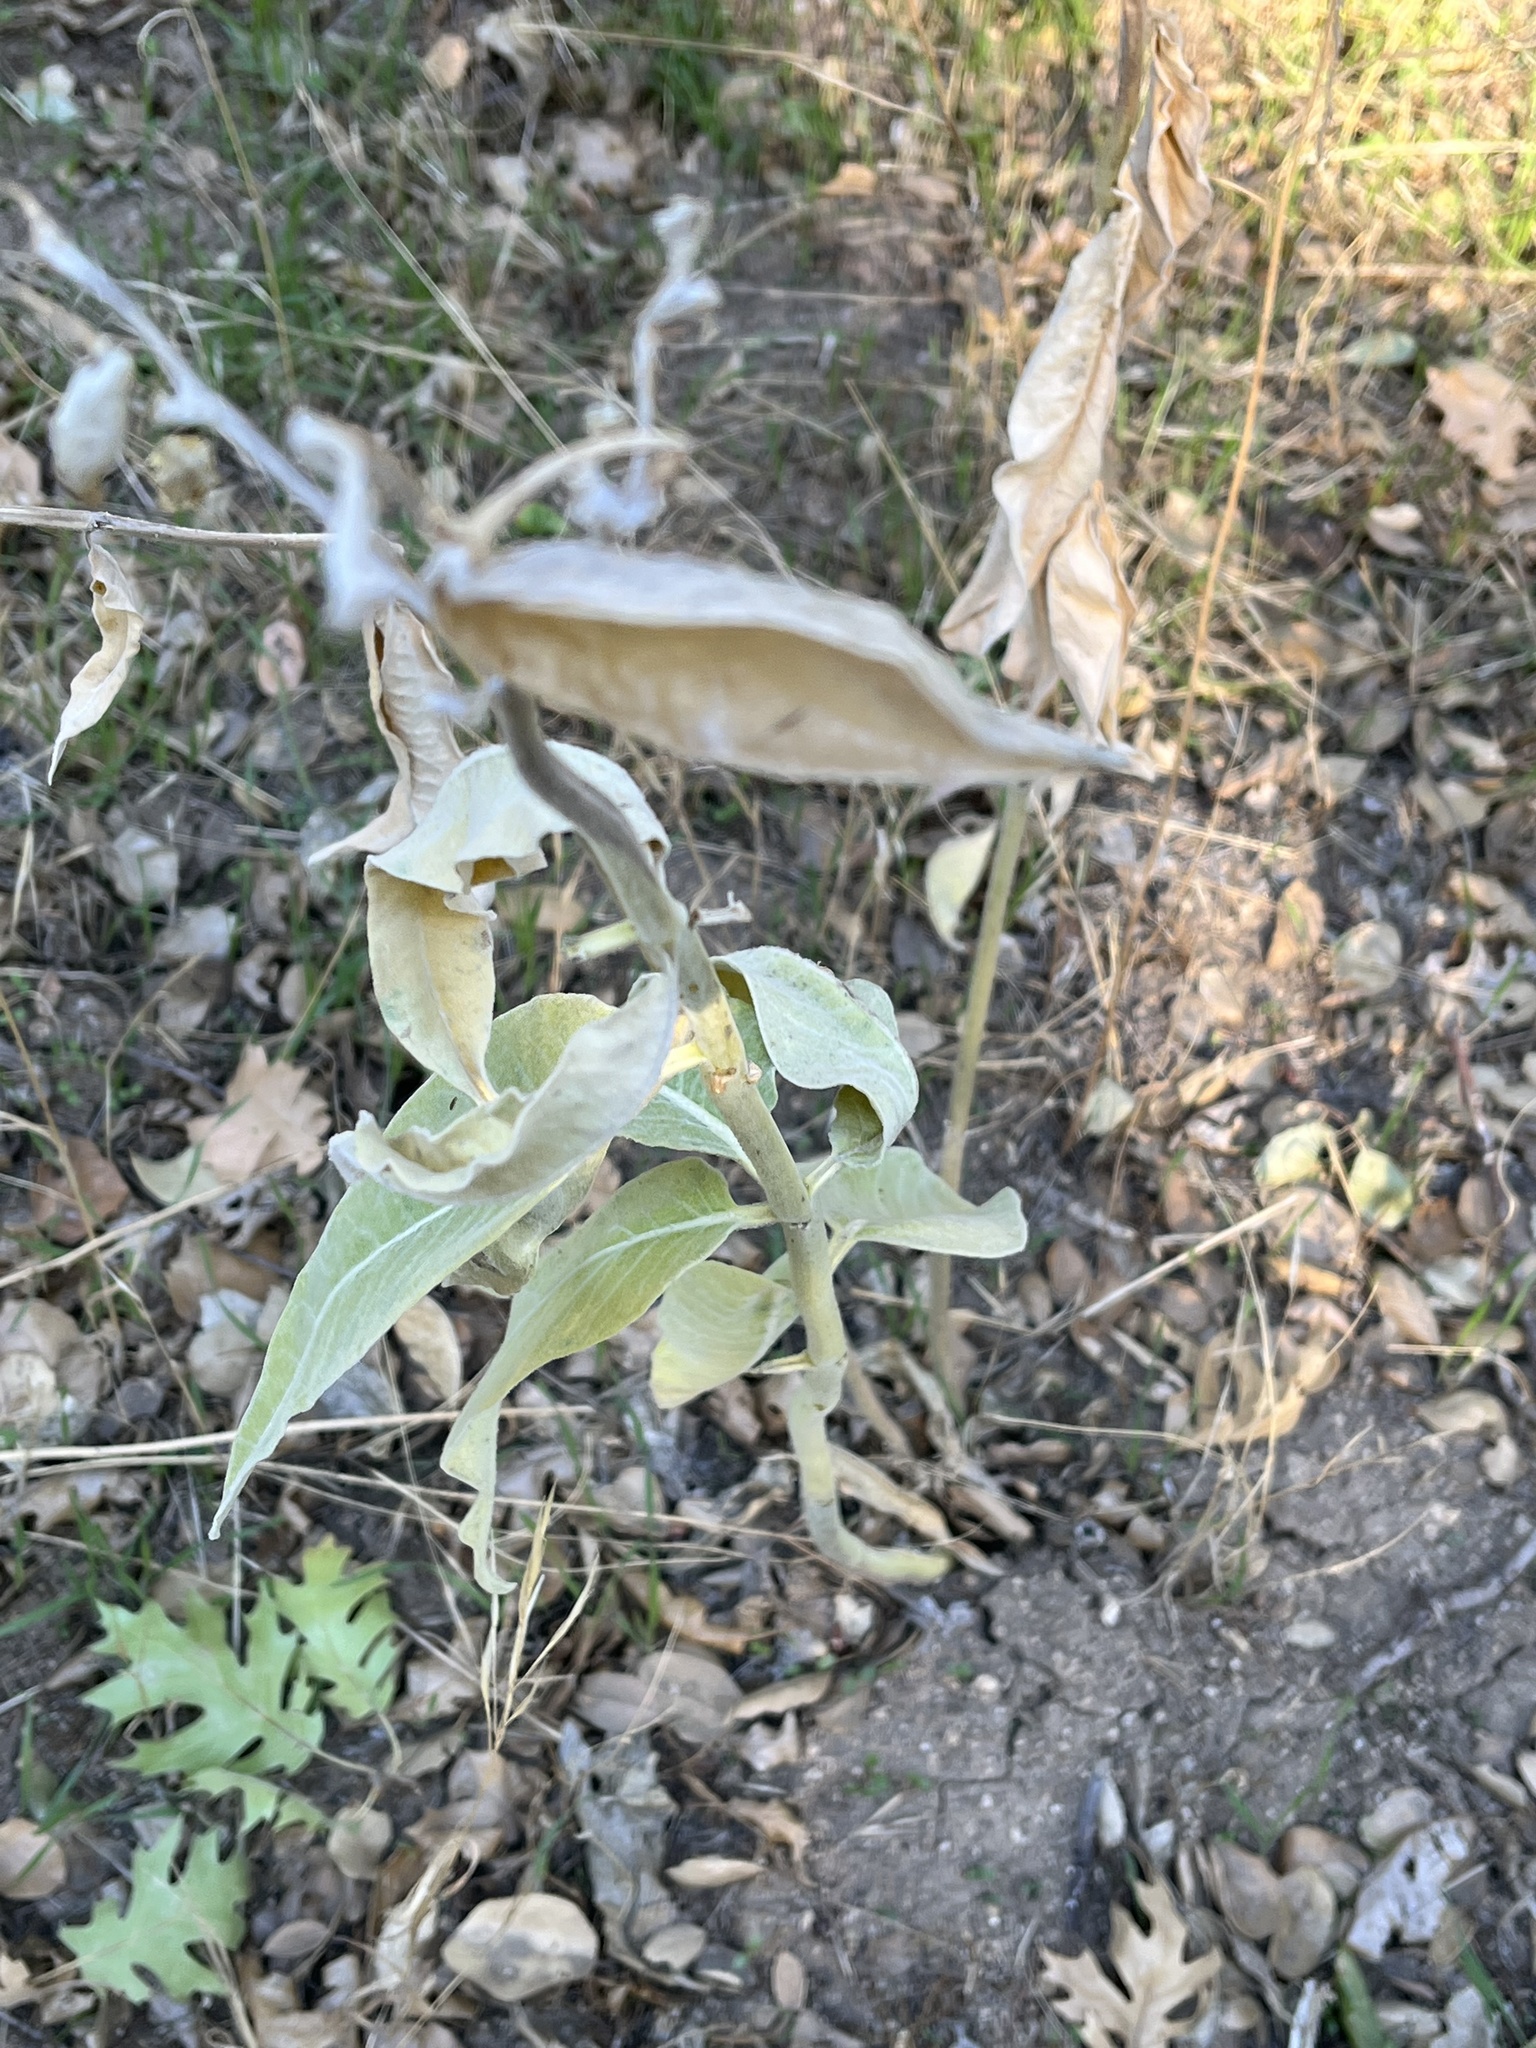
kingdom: Plantae
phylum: Tracheophyta
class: Magnoliopsida
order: Gentianales
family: Apocynaceae
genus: Asclepias
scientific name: Asclepias eriocarpa
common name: Indian milkweed
